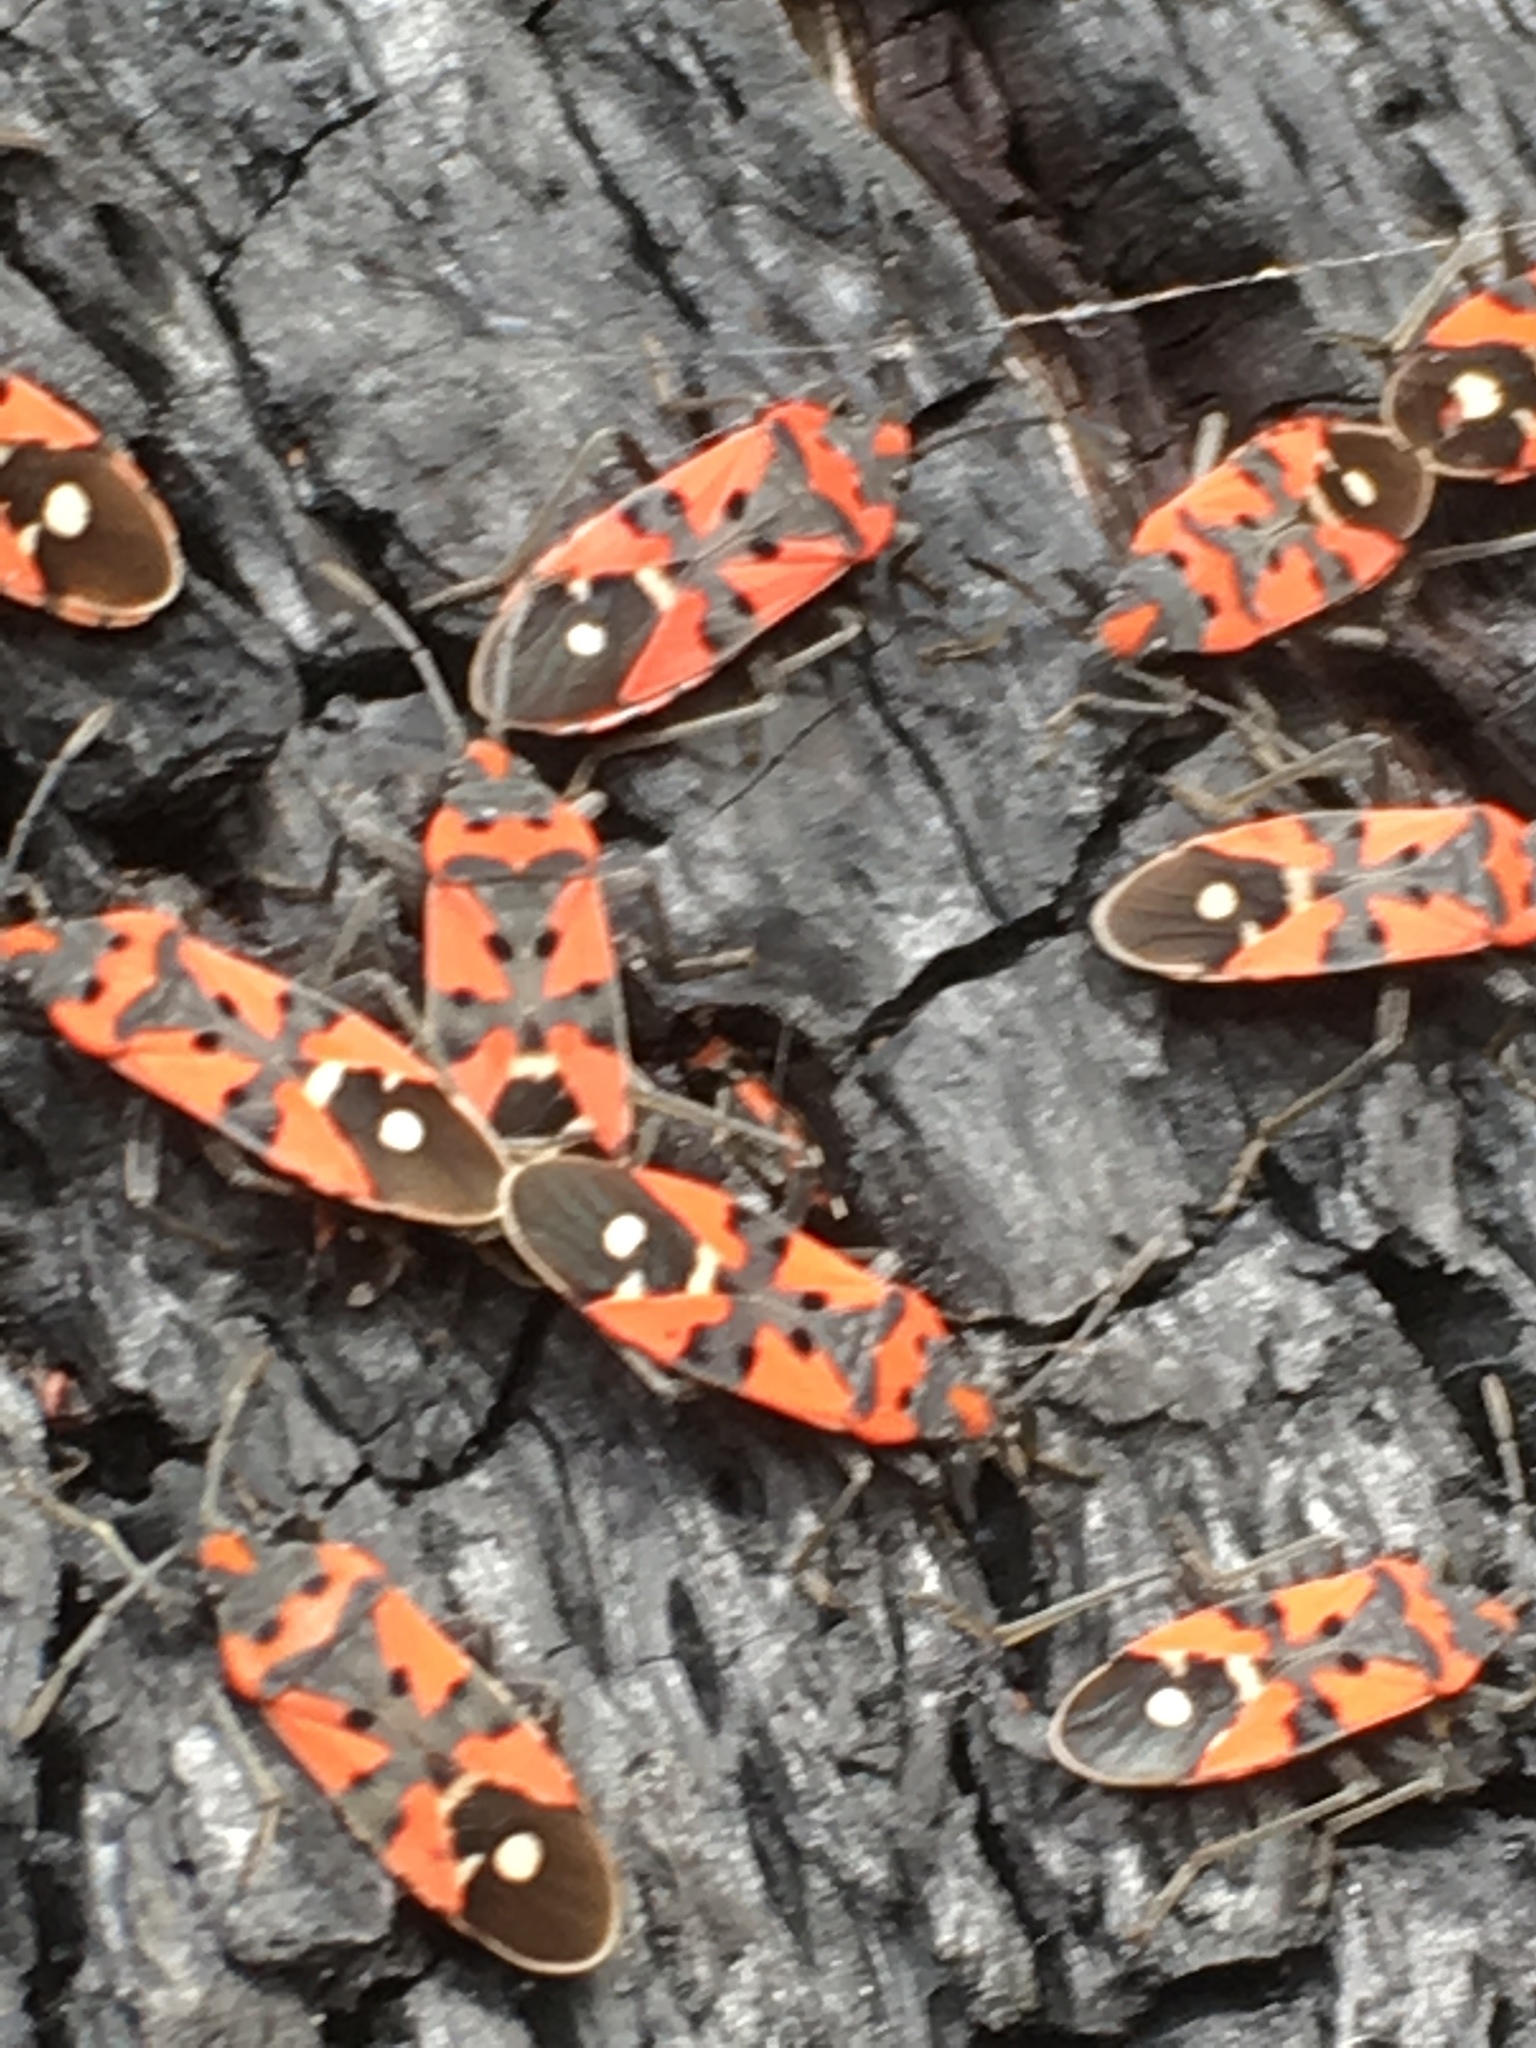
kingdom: Animalia
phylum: Arthropoda
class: Insecta
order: Hemiptera
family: Lygaeidae
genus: Lygaeus
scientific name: Lygaeus equestris
